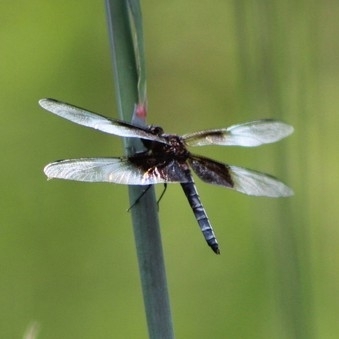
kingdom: Animalia
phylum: Arthropoda
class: Insecta
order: Odonata
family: Libellulidae
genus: Libellula
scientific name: Libellula luctuosa
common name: Widow skimmer
